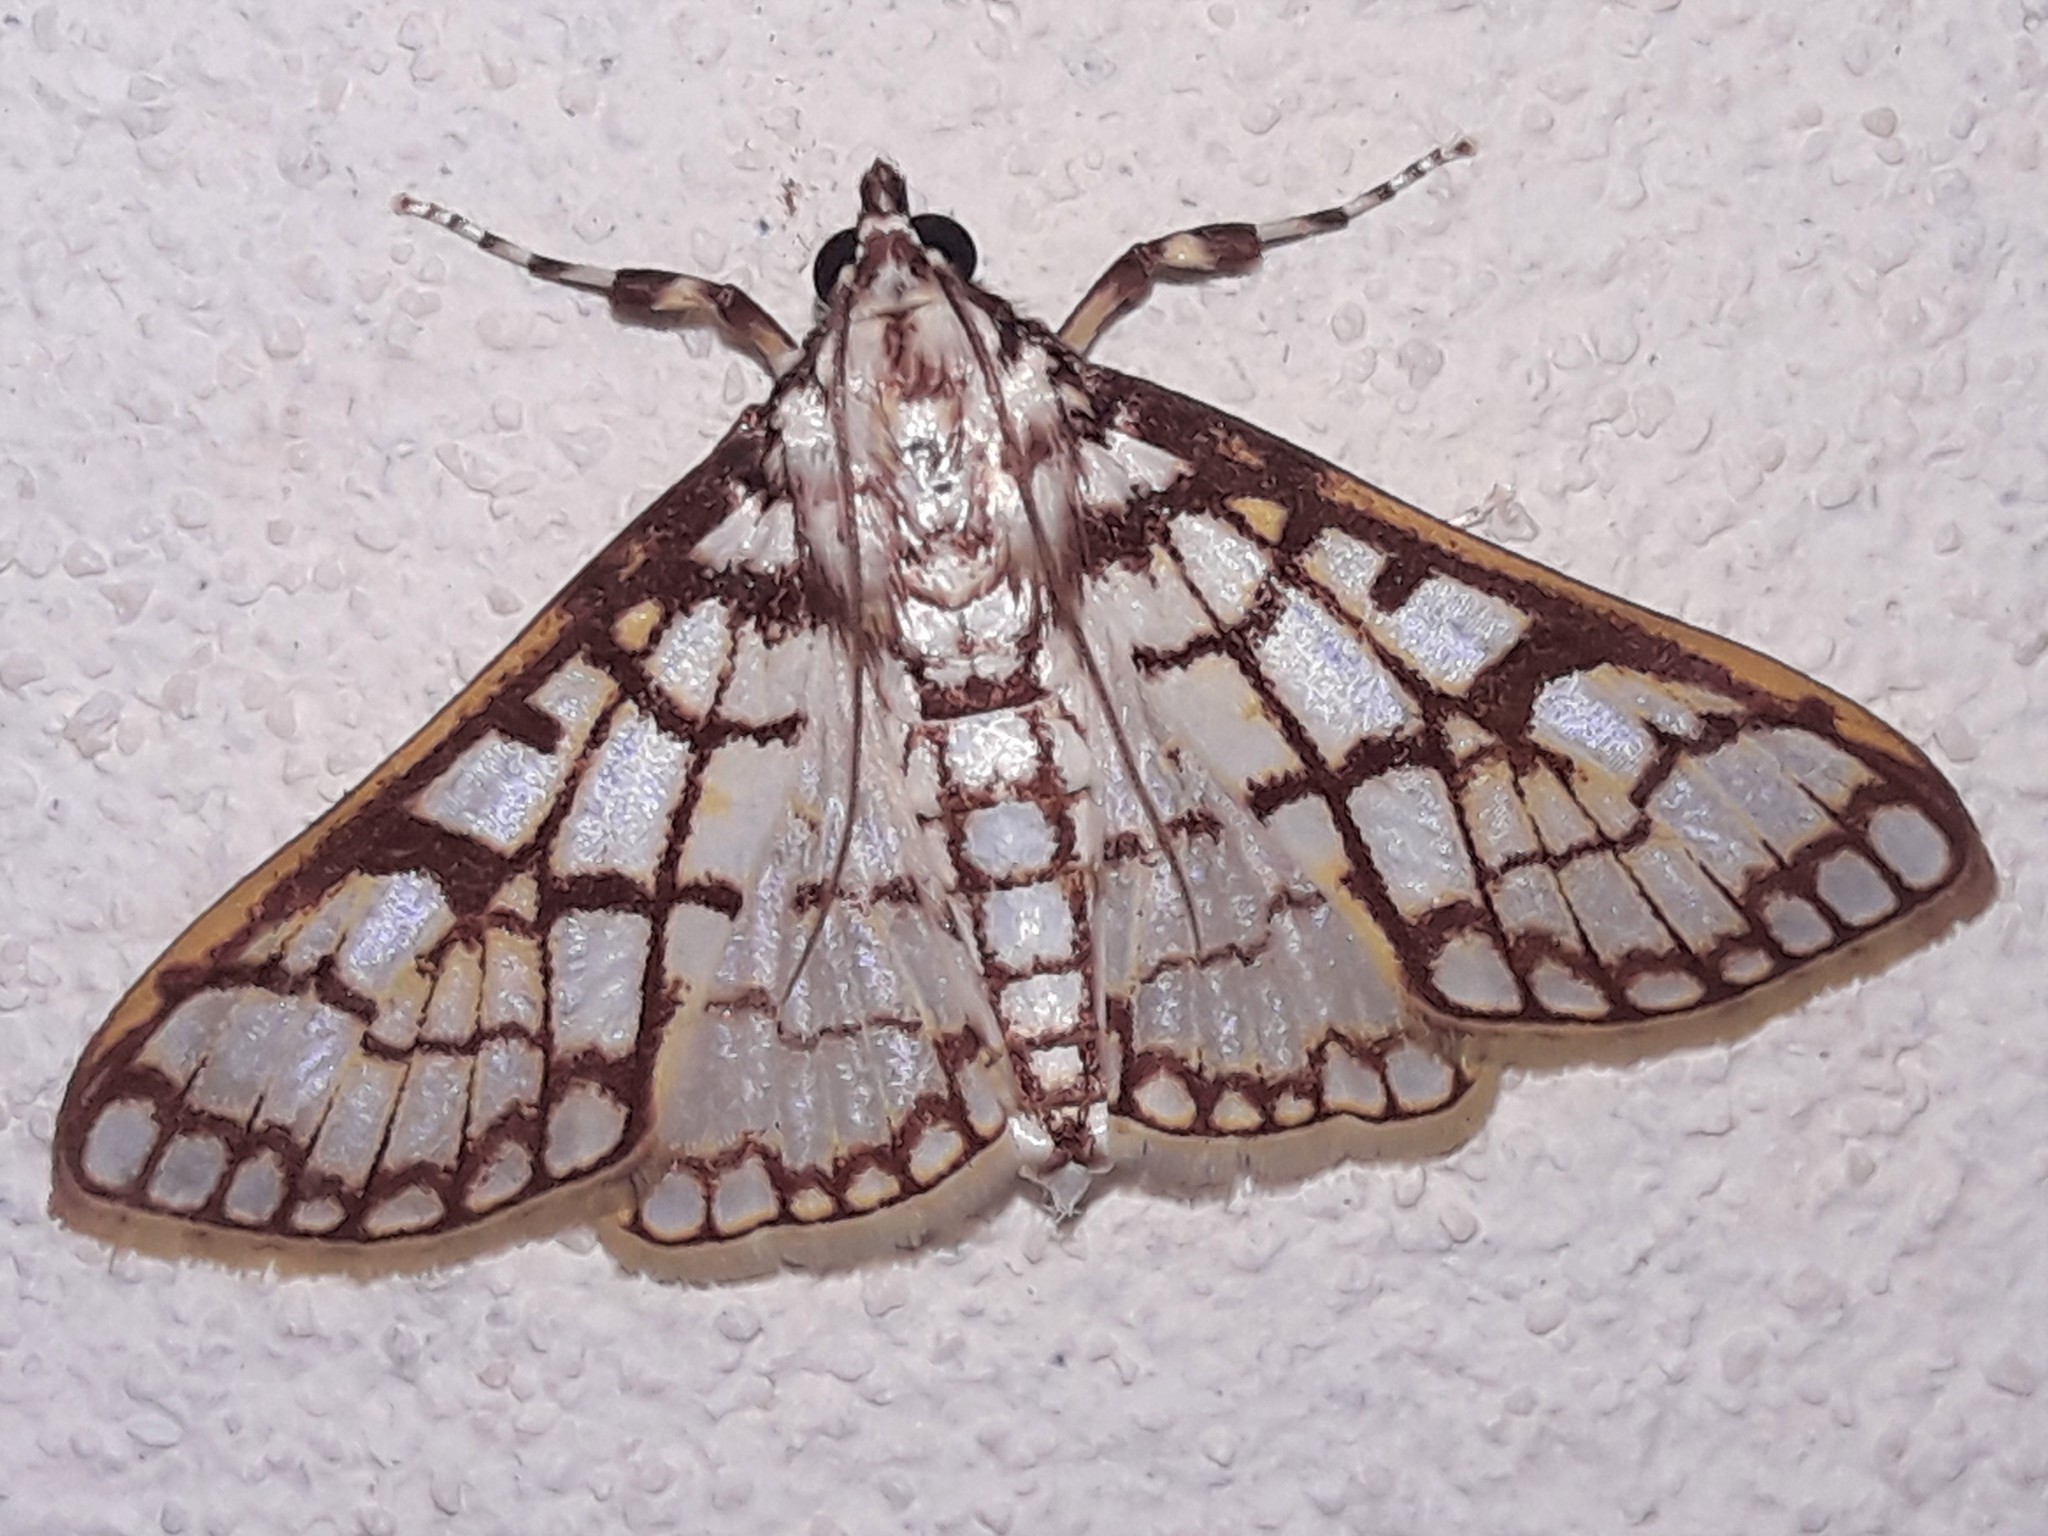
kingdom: Animalia
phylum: Arthropoda
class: Insecta
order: Lepidoptera
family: Crambidae
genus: Polygrammodes
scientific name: Polygrammodes
